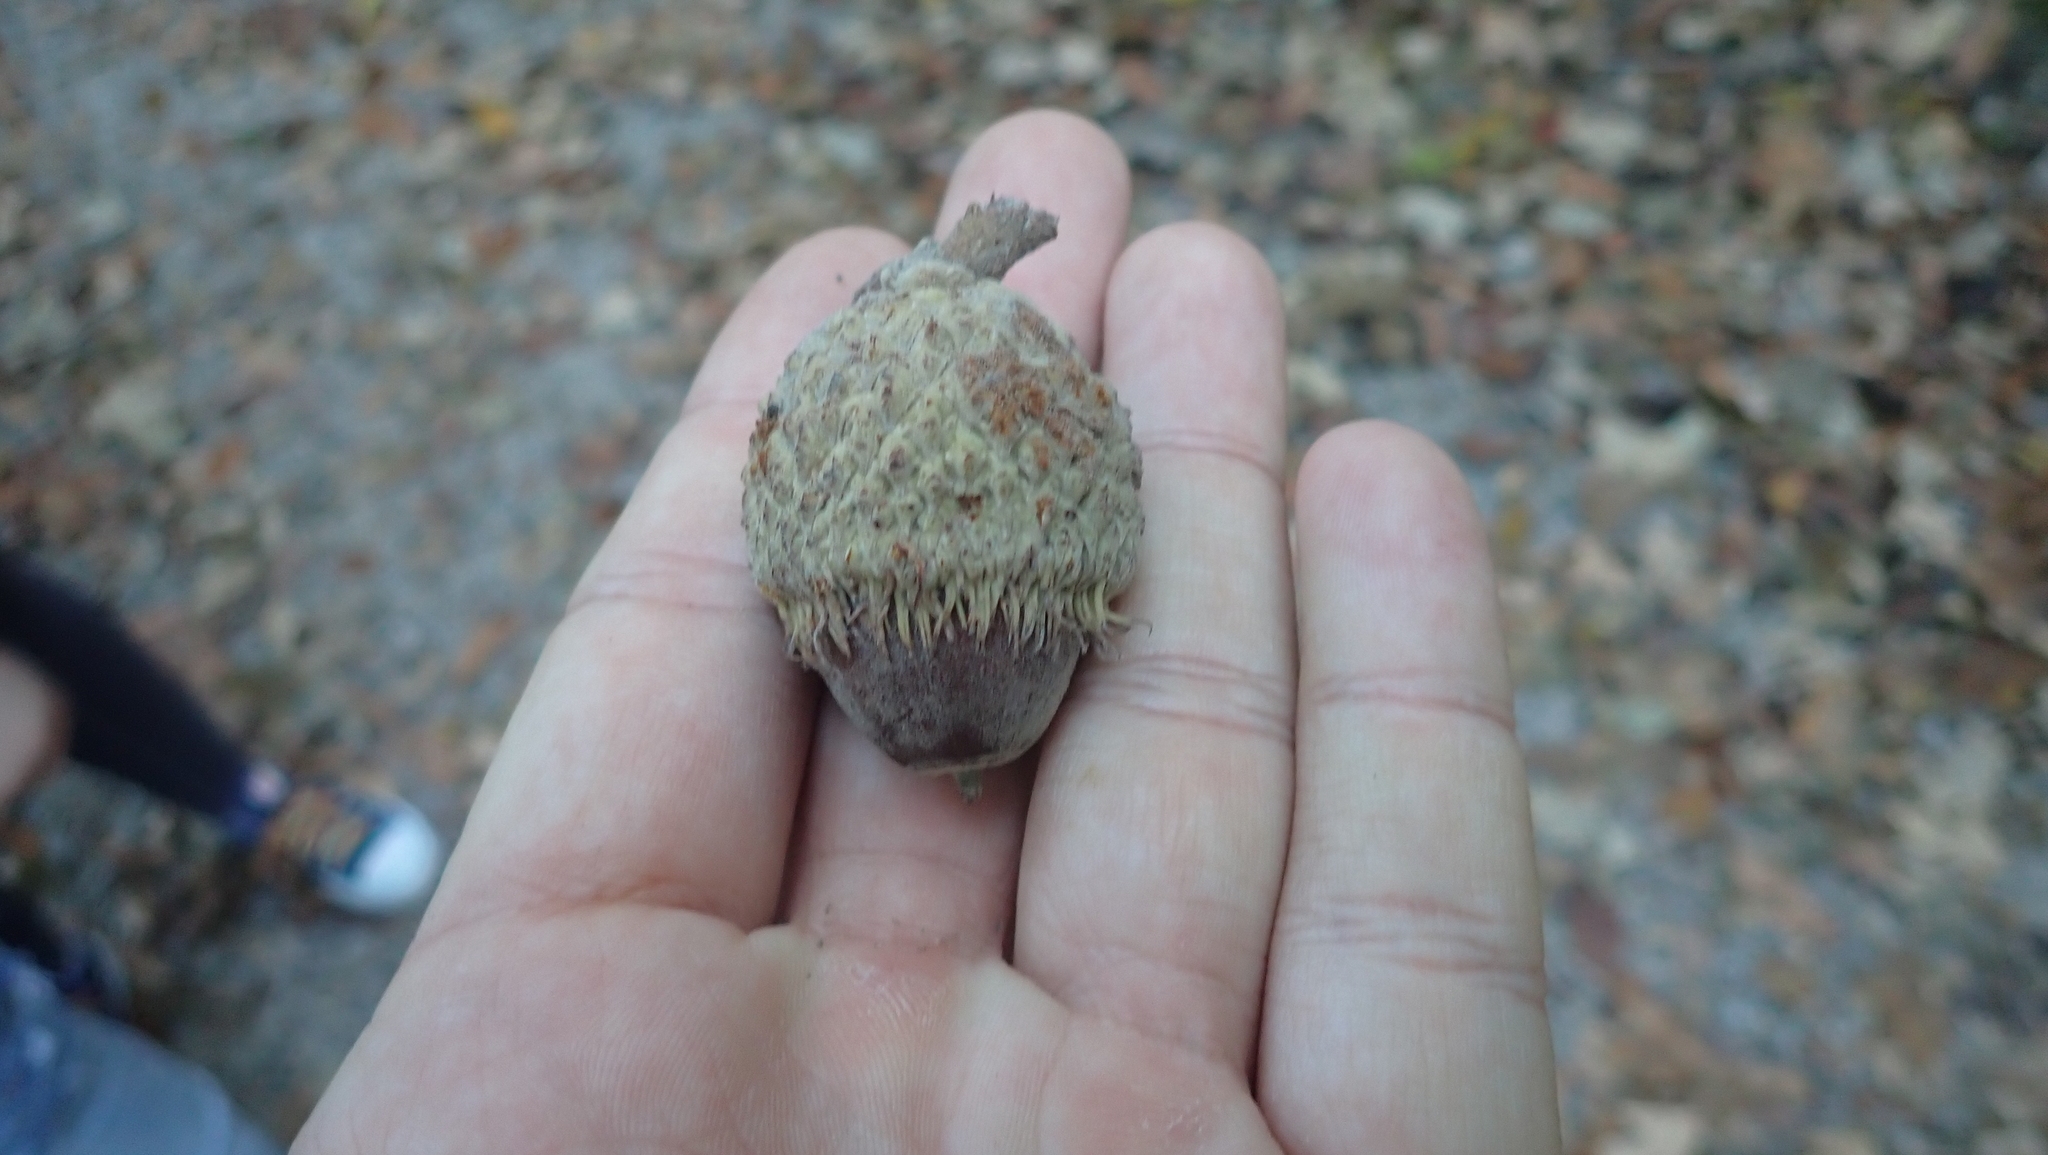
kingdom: Plantae
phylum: Tracheophyta
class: Magnoliopsida
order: Fagales
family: Fagaceae
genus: Quercus
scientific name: Quercus macrocarpa
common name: Bur oak
